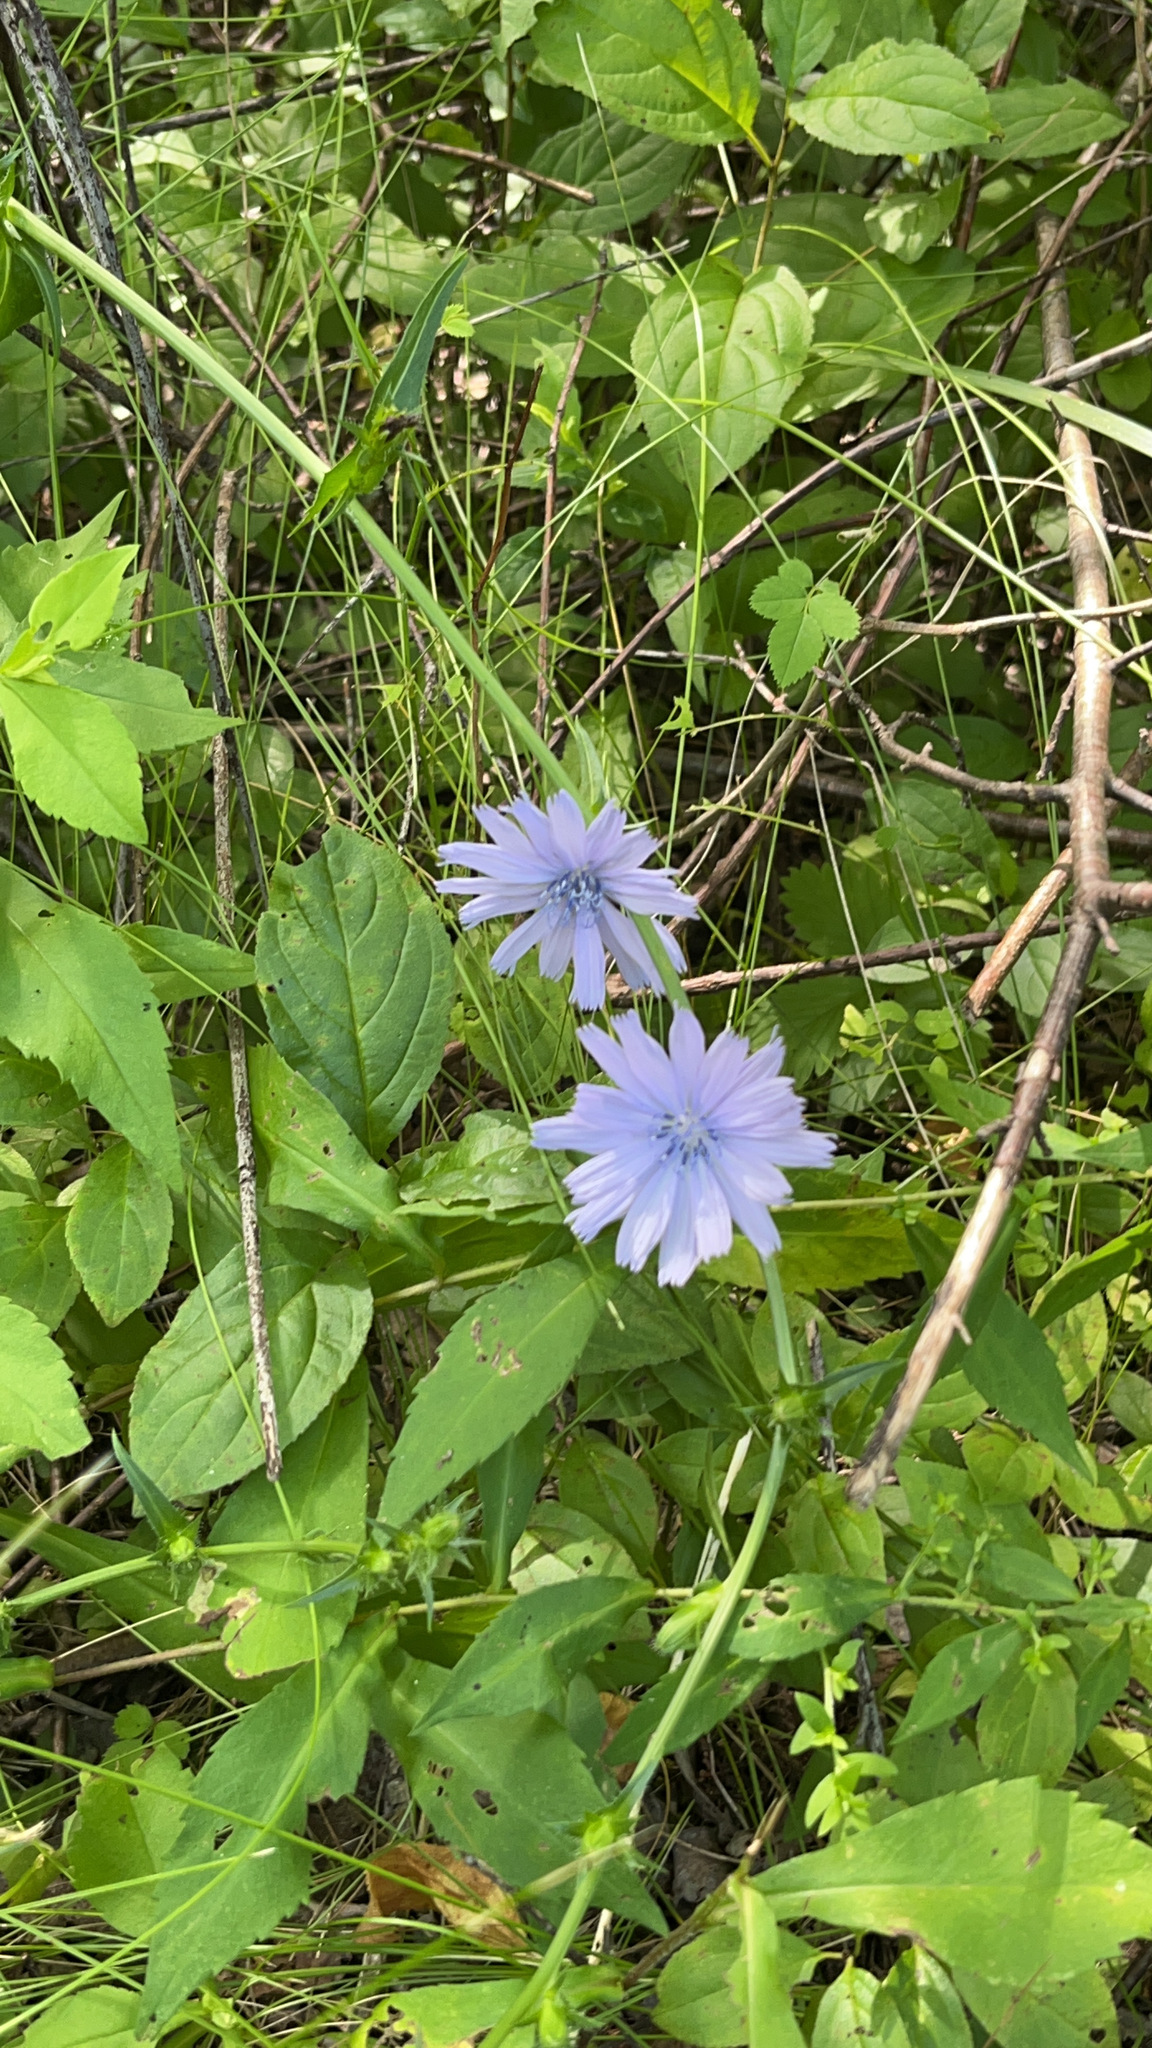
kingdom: Plantae
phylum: Tracheophyta
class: Magnoliopsida
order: Asterales
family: Asteraceae
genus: Cichorium
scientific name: Cichorium intybus
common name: Chicory
